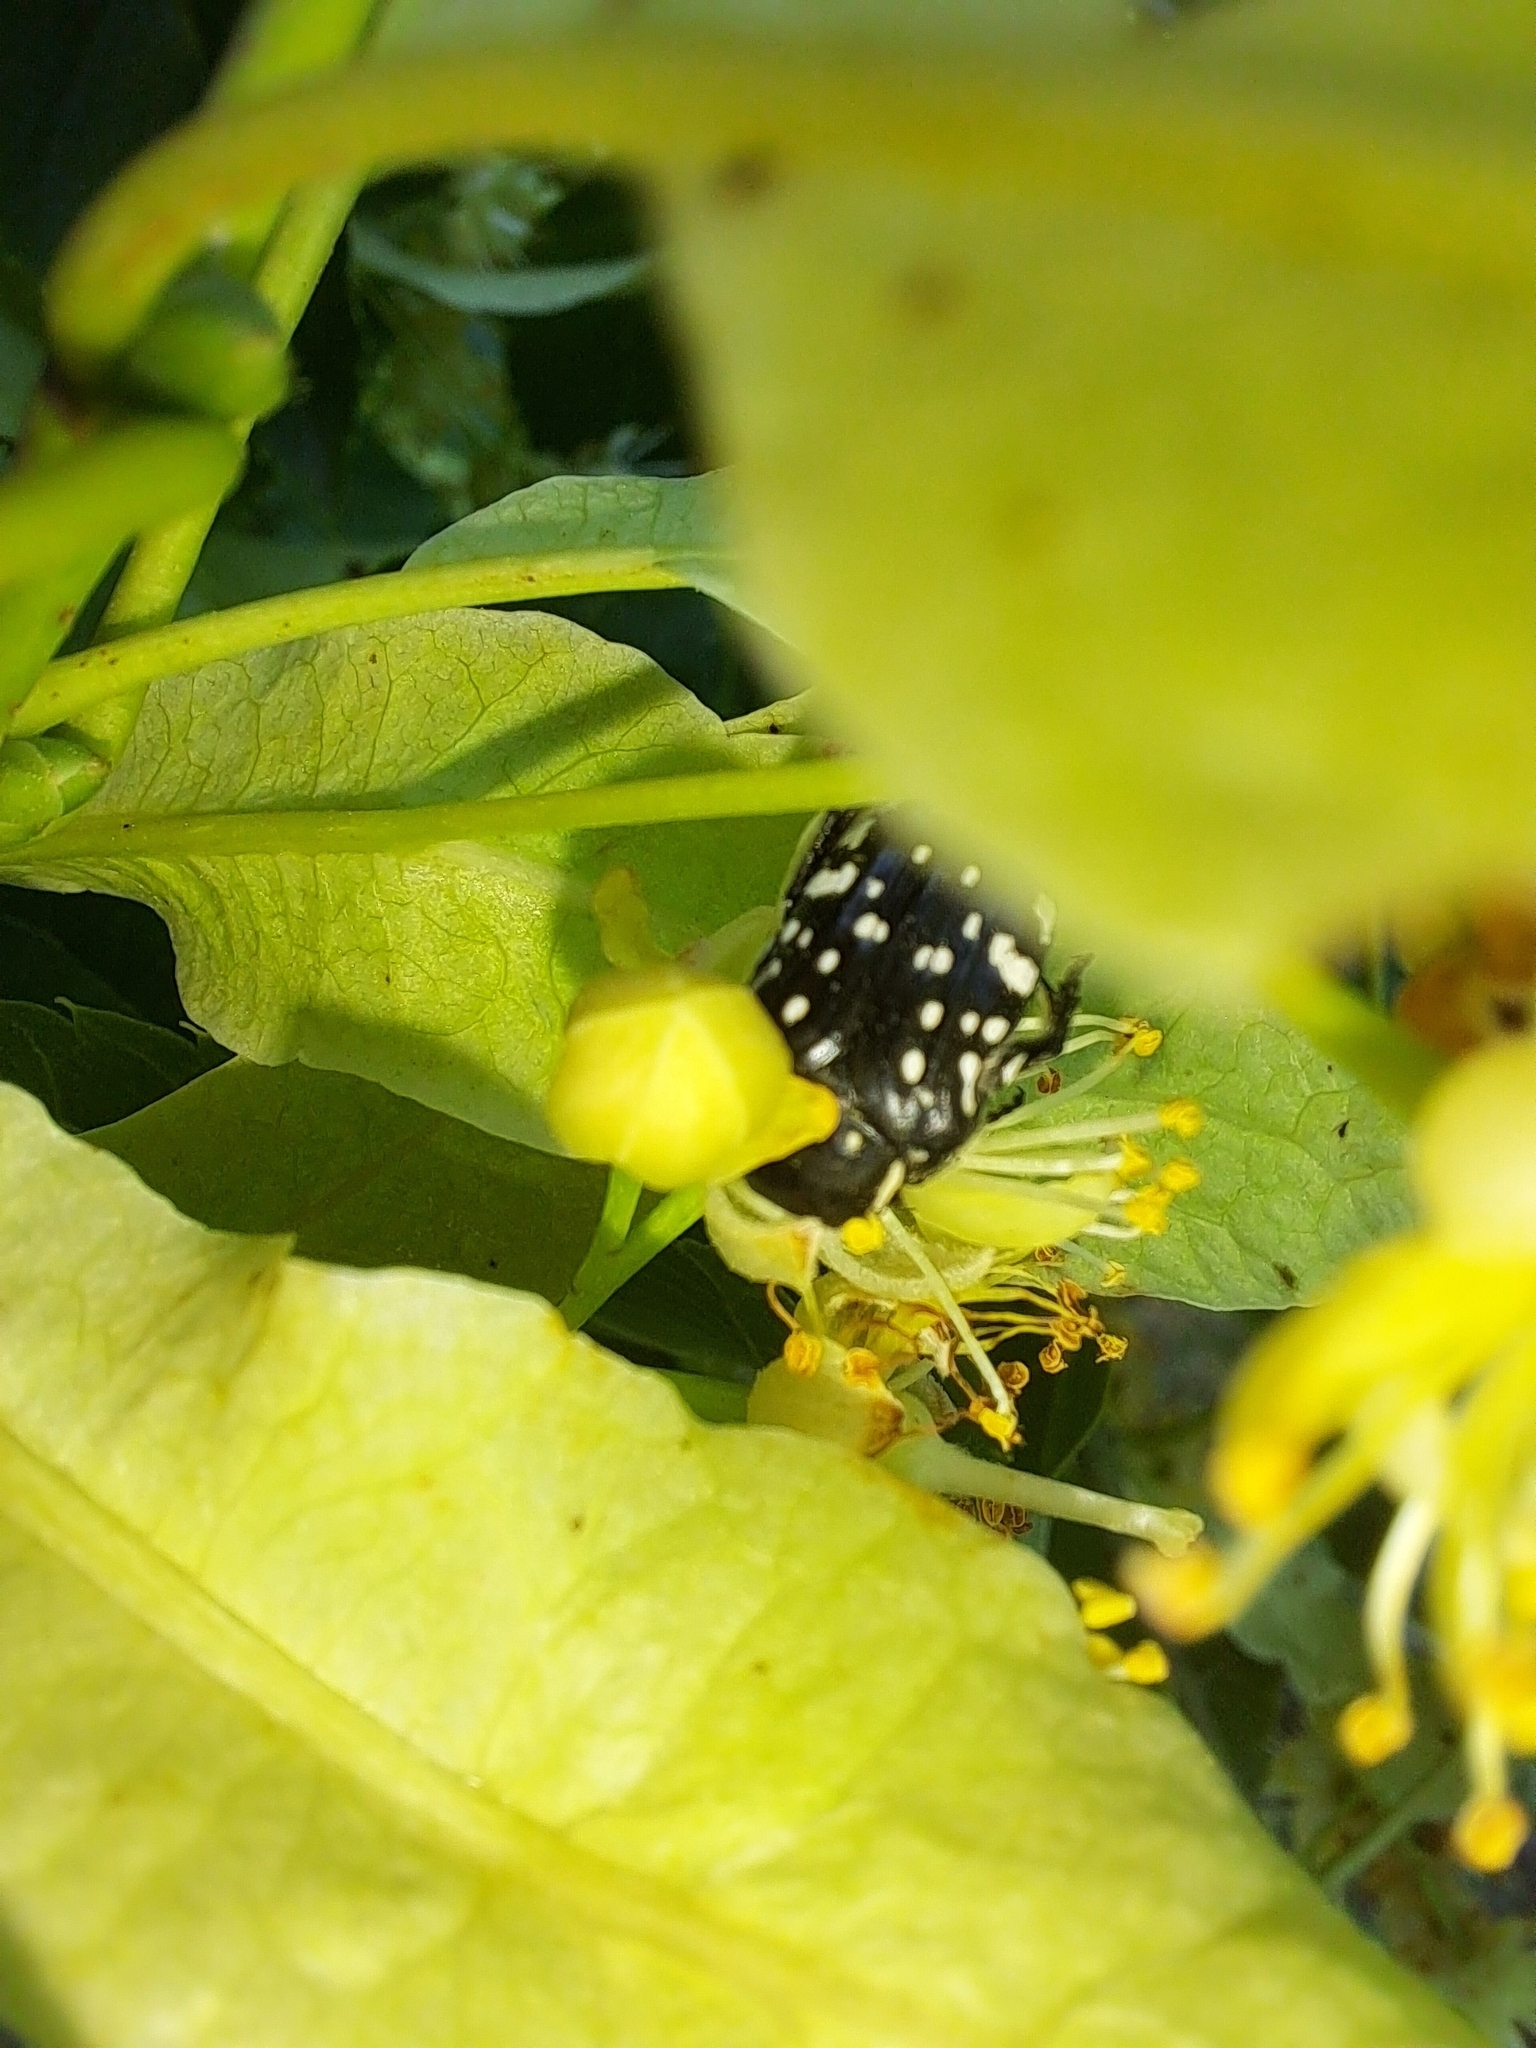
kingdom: Animalia
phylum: Arthropoda
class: Insecta
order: Coleoptera
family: Scarabaeidae
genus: Oxythyrea
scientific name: Oxythyrea cinctella
